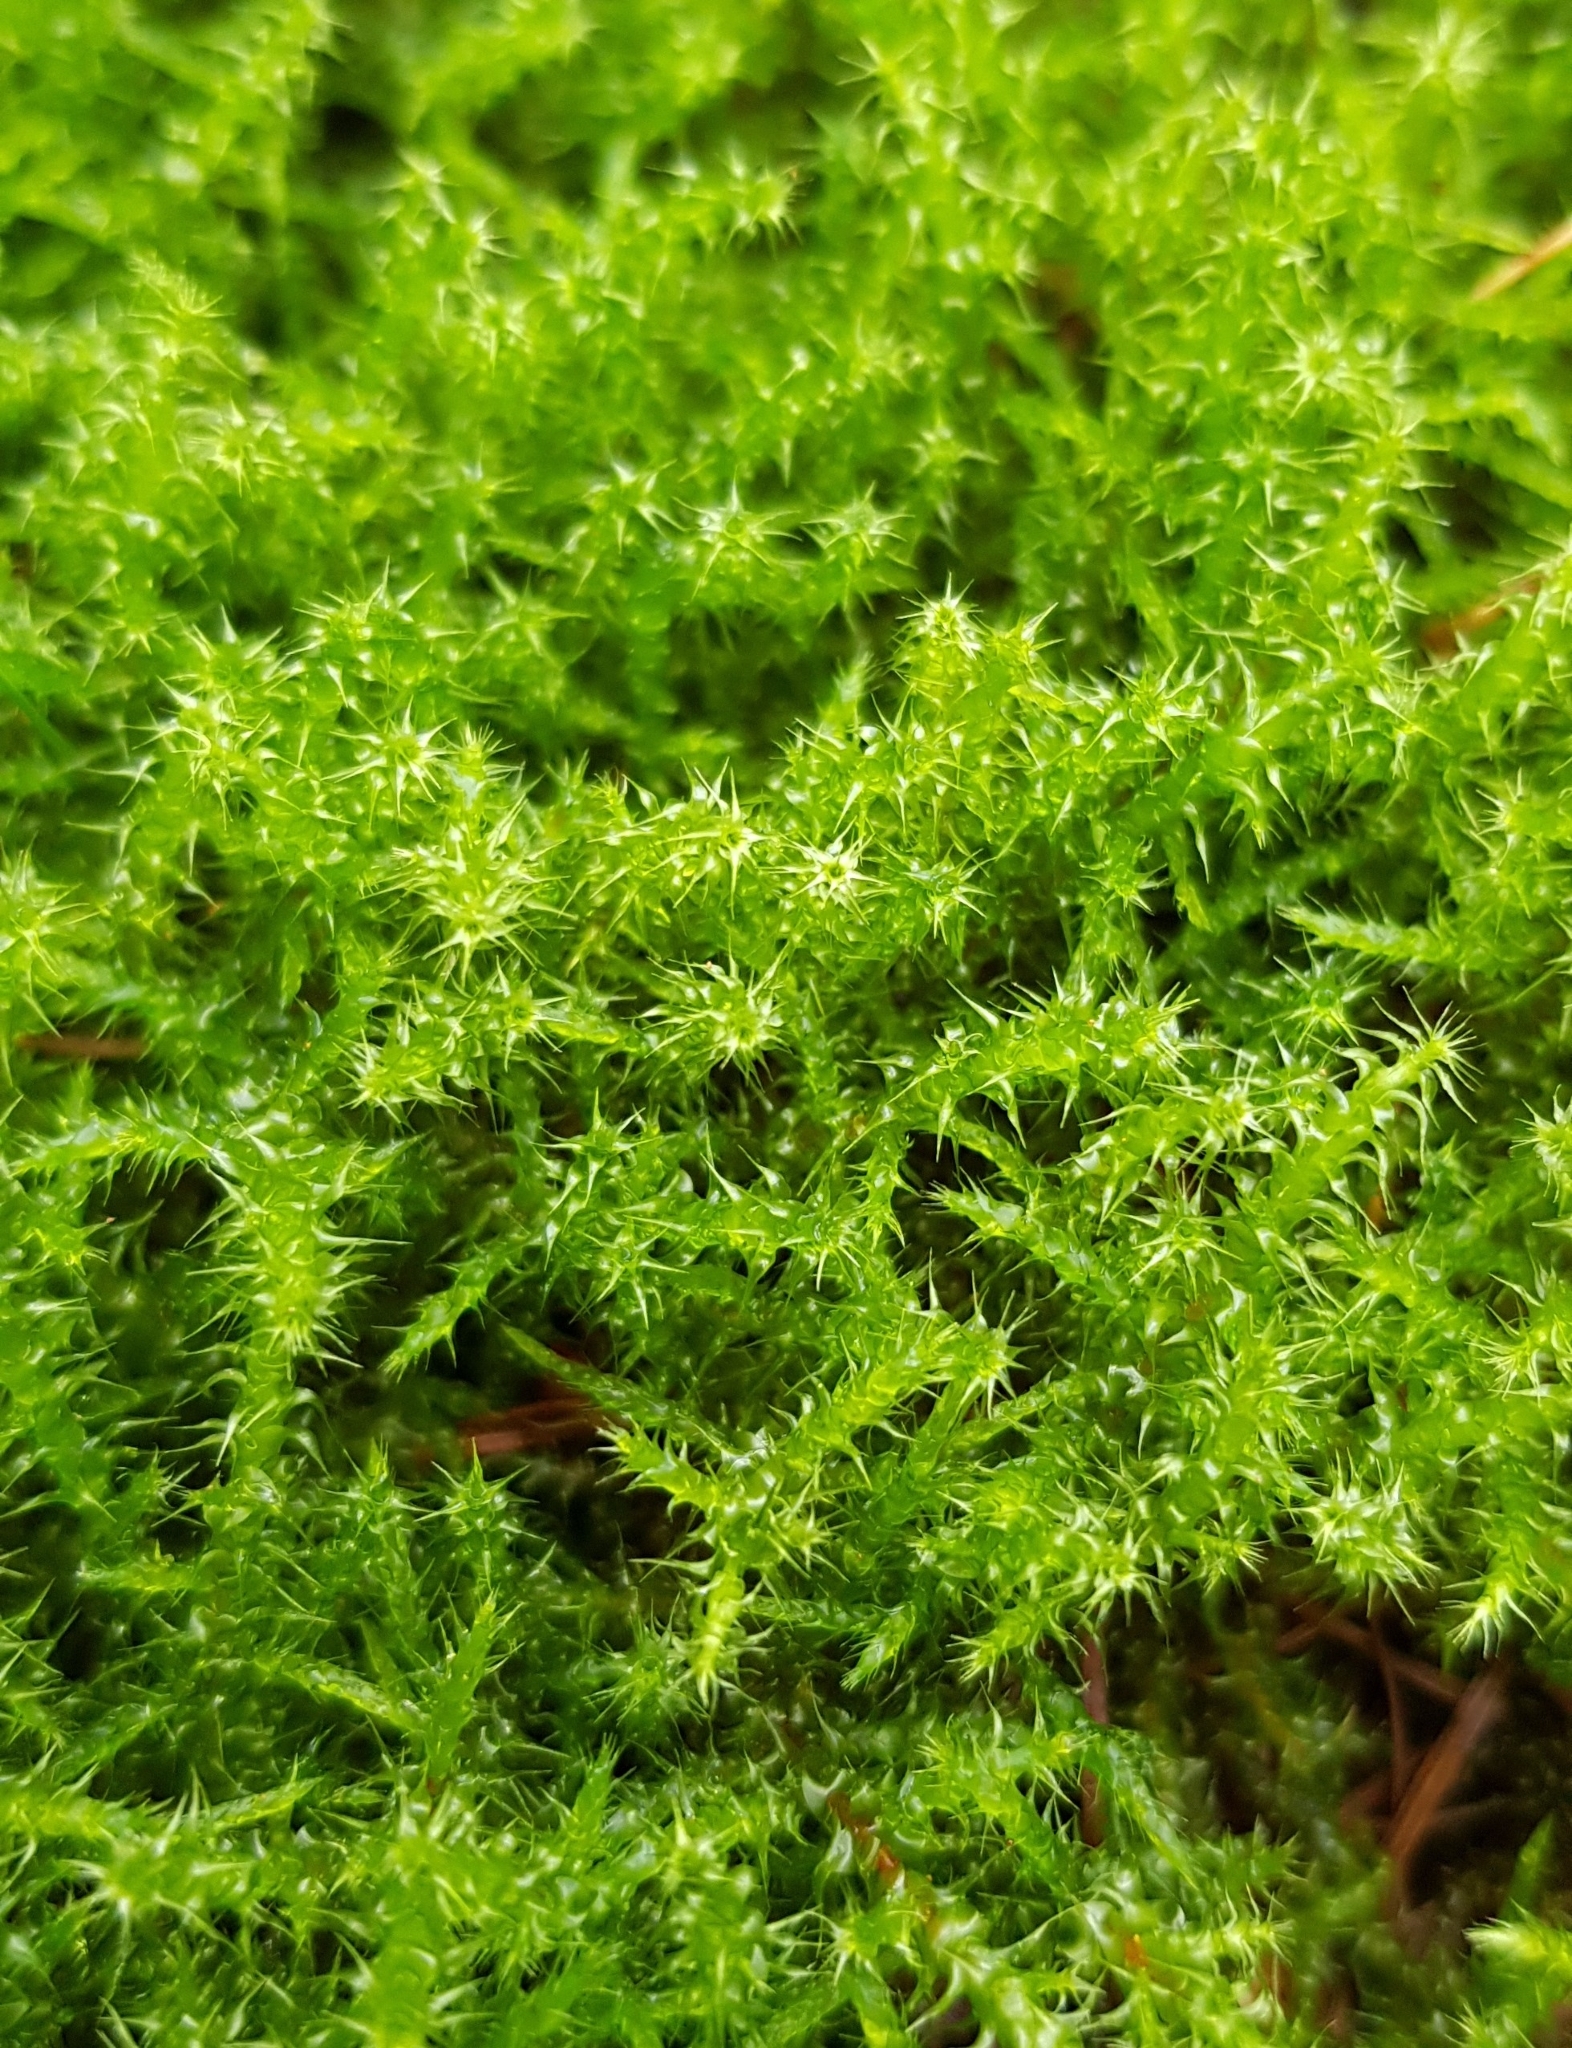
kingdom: Plantae
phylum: Bryophyta
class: Bryopsida
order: Hypnales
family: Hylocomiaceae
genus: Rhytidiadelphus
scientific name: Rhytidiadelphus squarrosus
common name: Springy turf-moss
